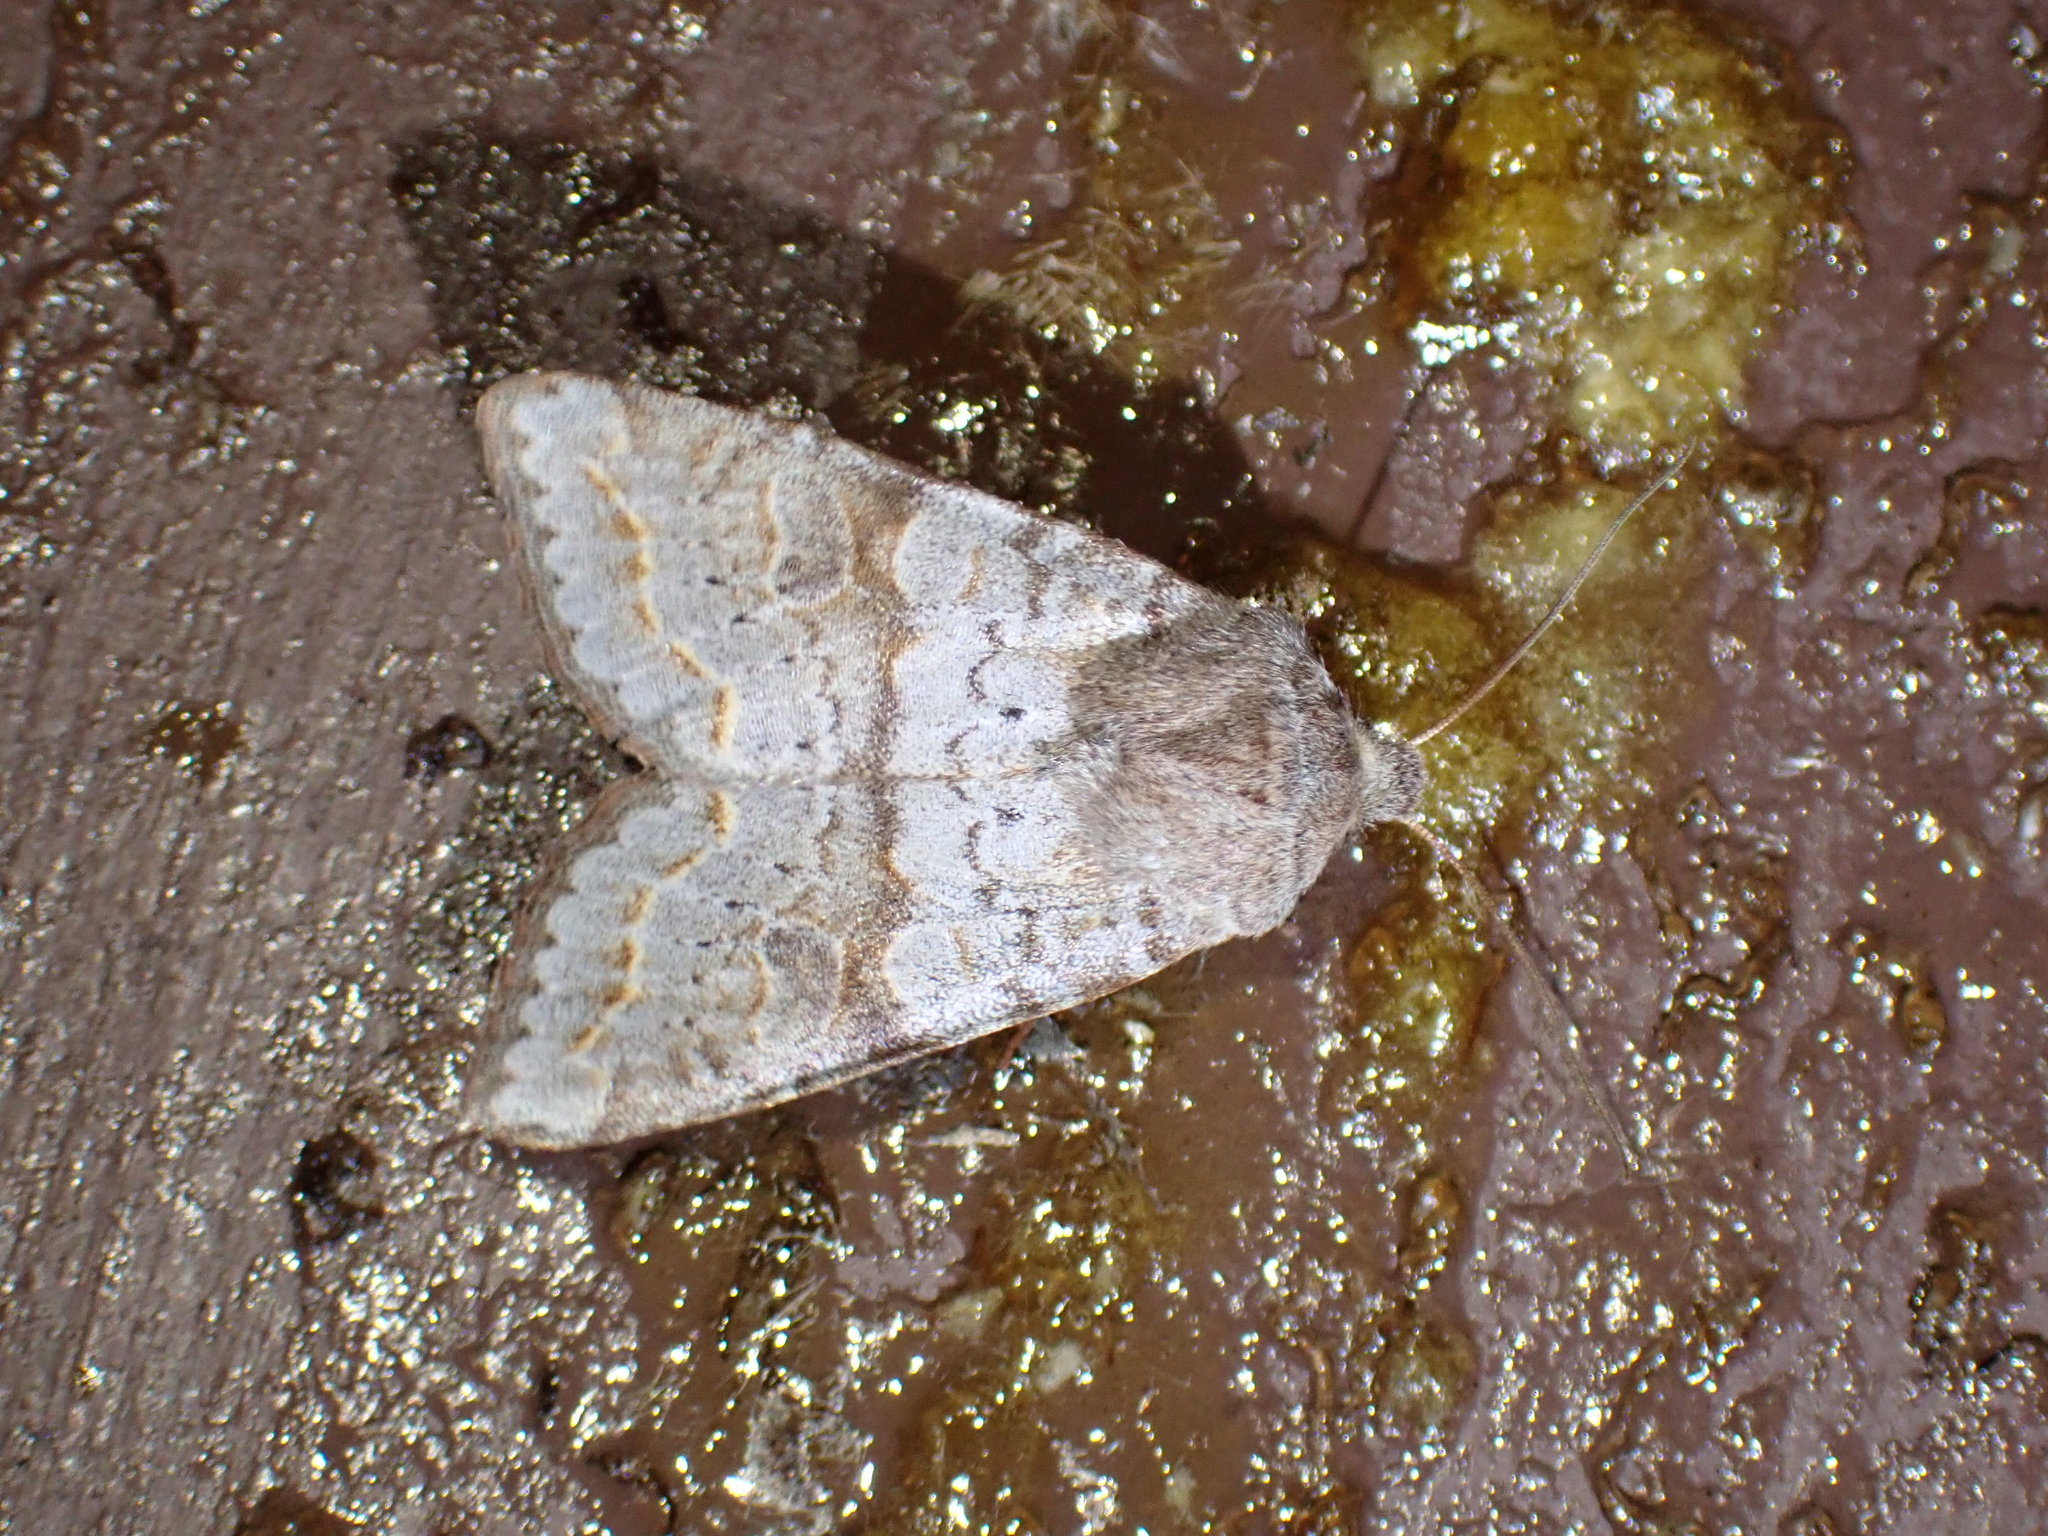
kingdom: Animalia
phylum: Arthropoda
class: Insecta
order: Lepidoptera
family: Noctuidae
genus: Orthosia
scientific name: Orthosia revicta
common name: Rusty whitesided caterpillar
